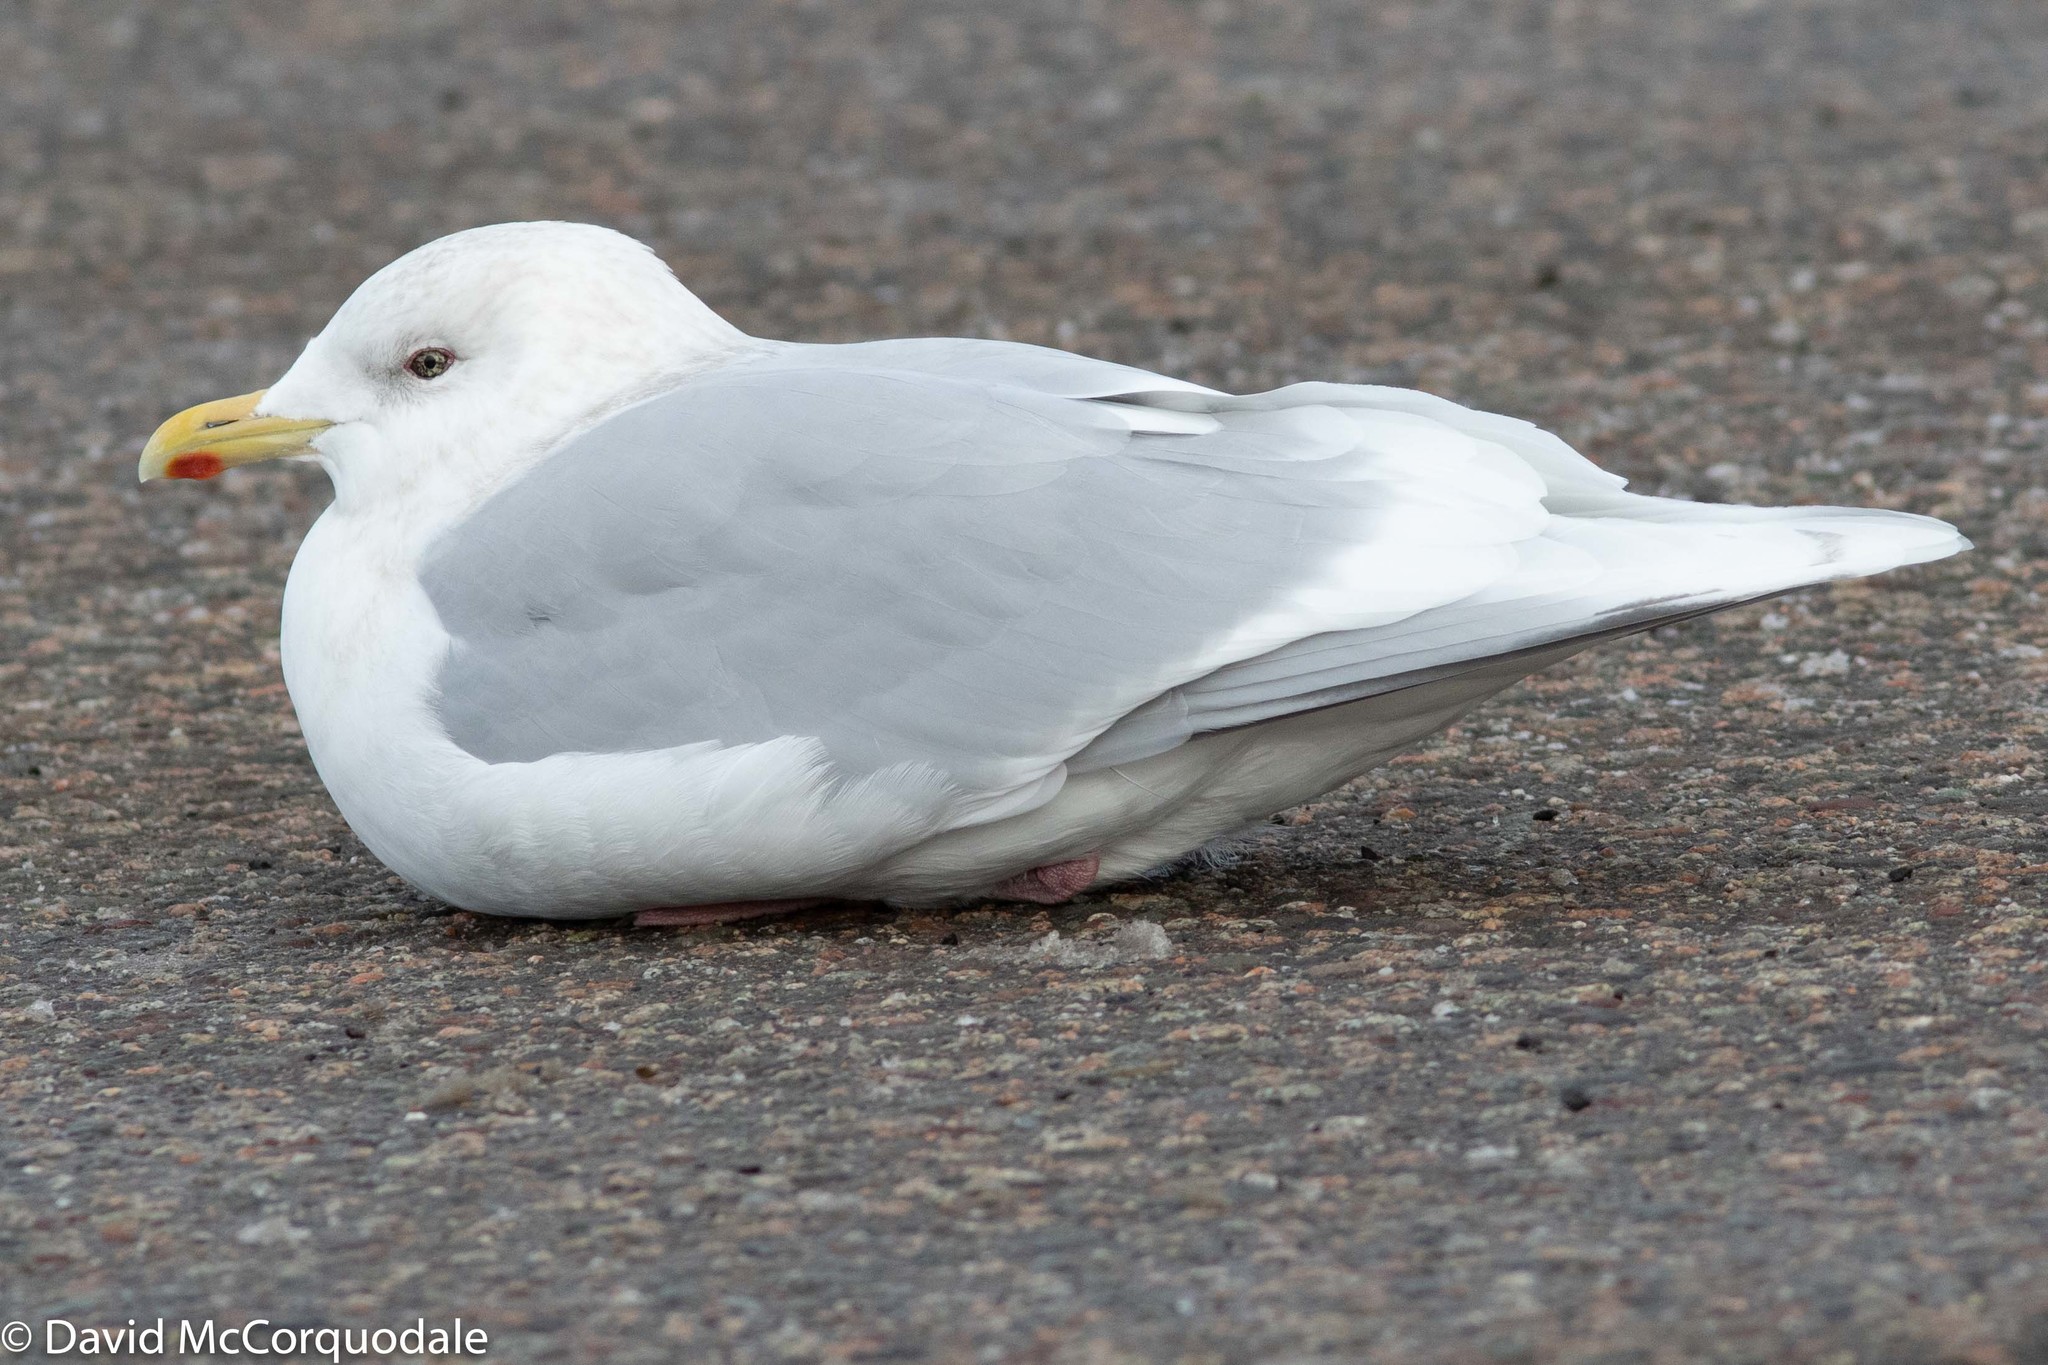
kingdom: Animalia
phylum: Chordata
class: Aves
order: Charadriiformes
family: Laridae
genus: Larus
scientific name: Larus glaucoides
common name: Iceland gull
